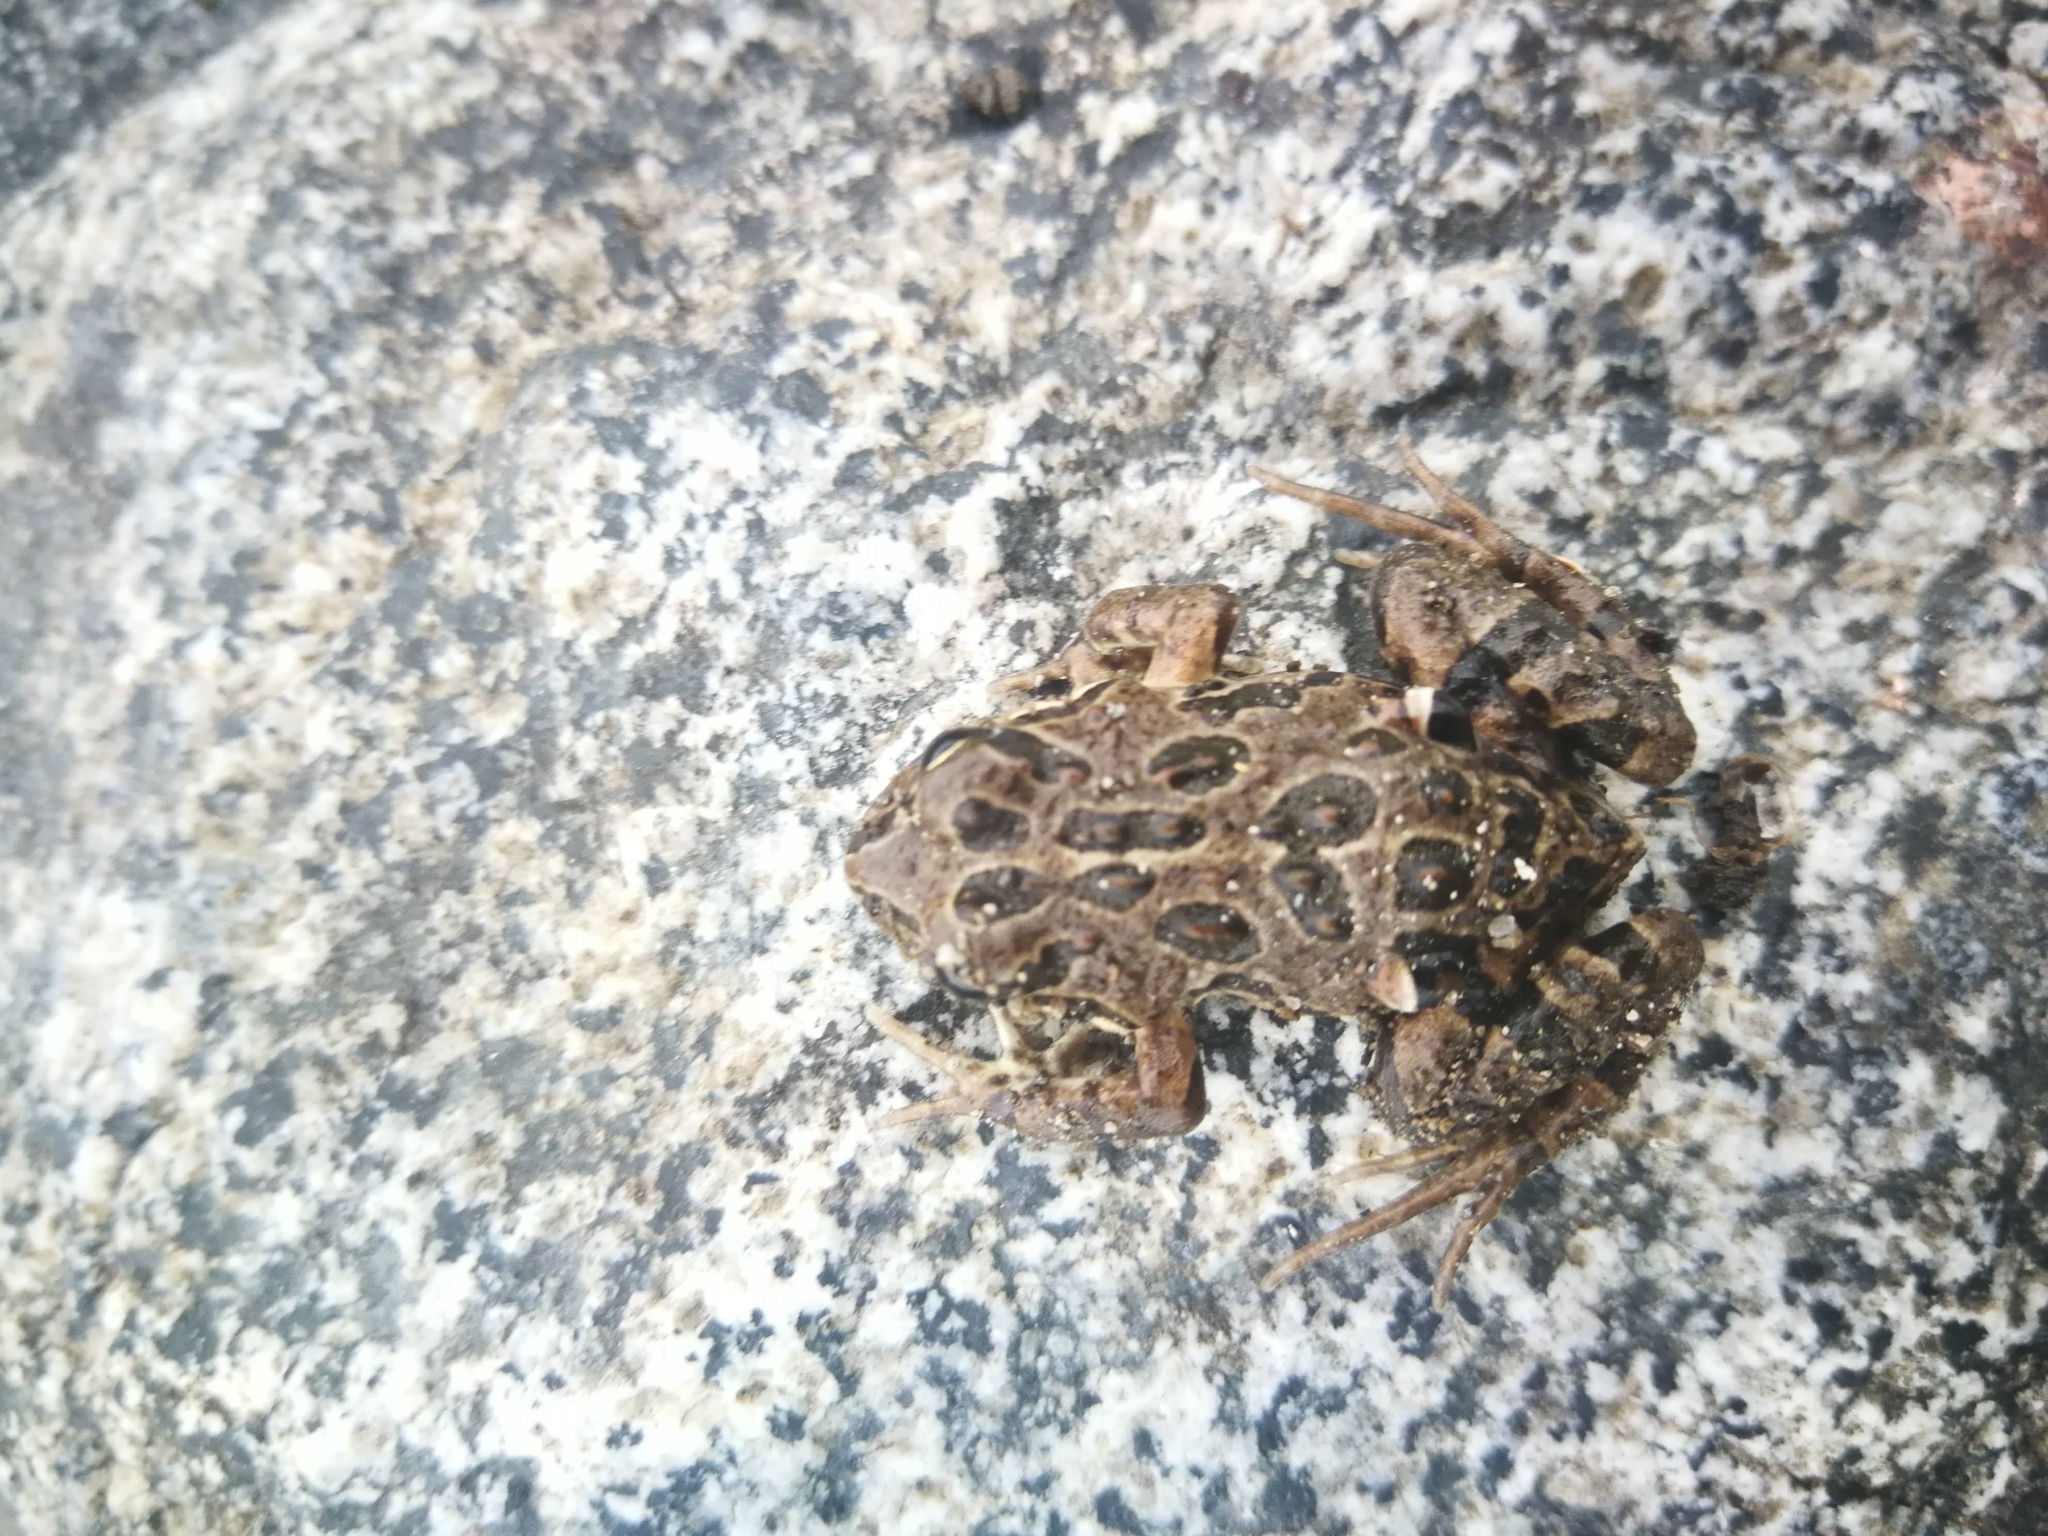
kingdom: Animalia
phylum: Chordata
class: Amphibia
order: Anura
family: Leptodactylidae
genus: Pleurodema
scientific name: Pleurodema thaul
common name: Chile four-eyed frog
